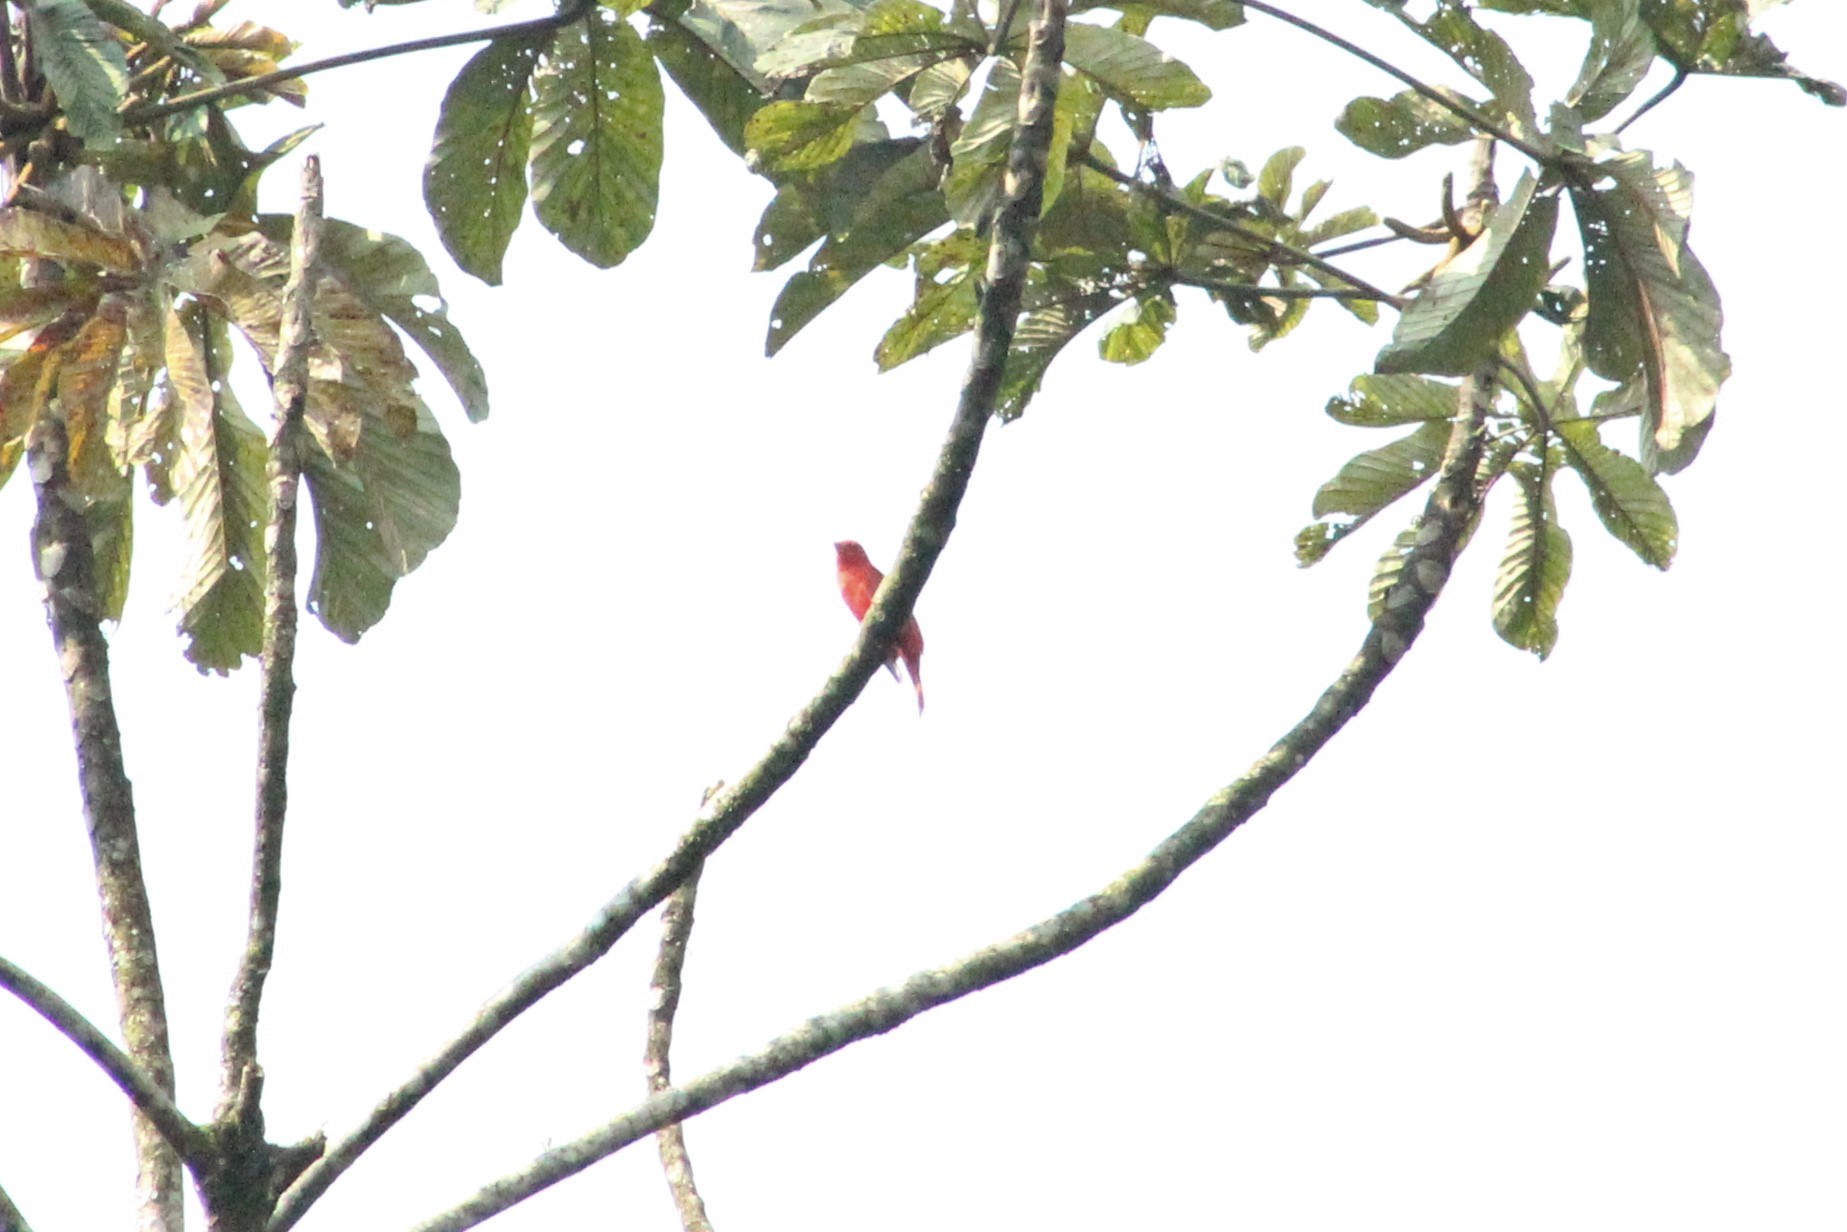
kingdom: Animalia
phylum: Chordata
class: Aves
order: Passeriformes
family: Cardinalidae
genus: Piranga
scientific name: Piranga rubra
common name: Summer tanager
